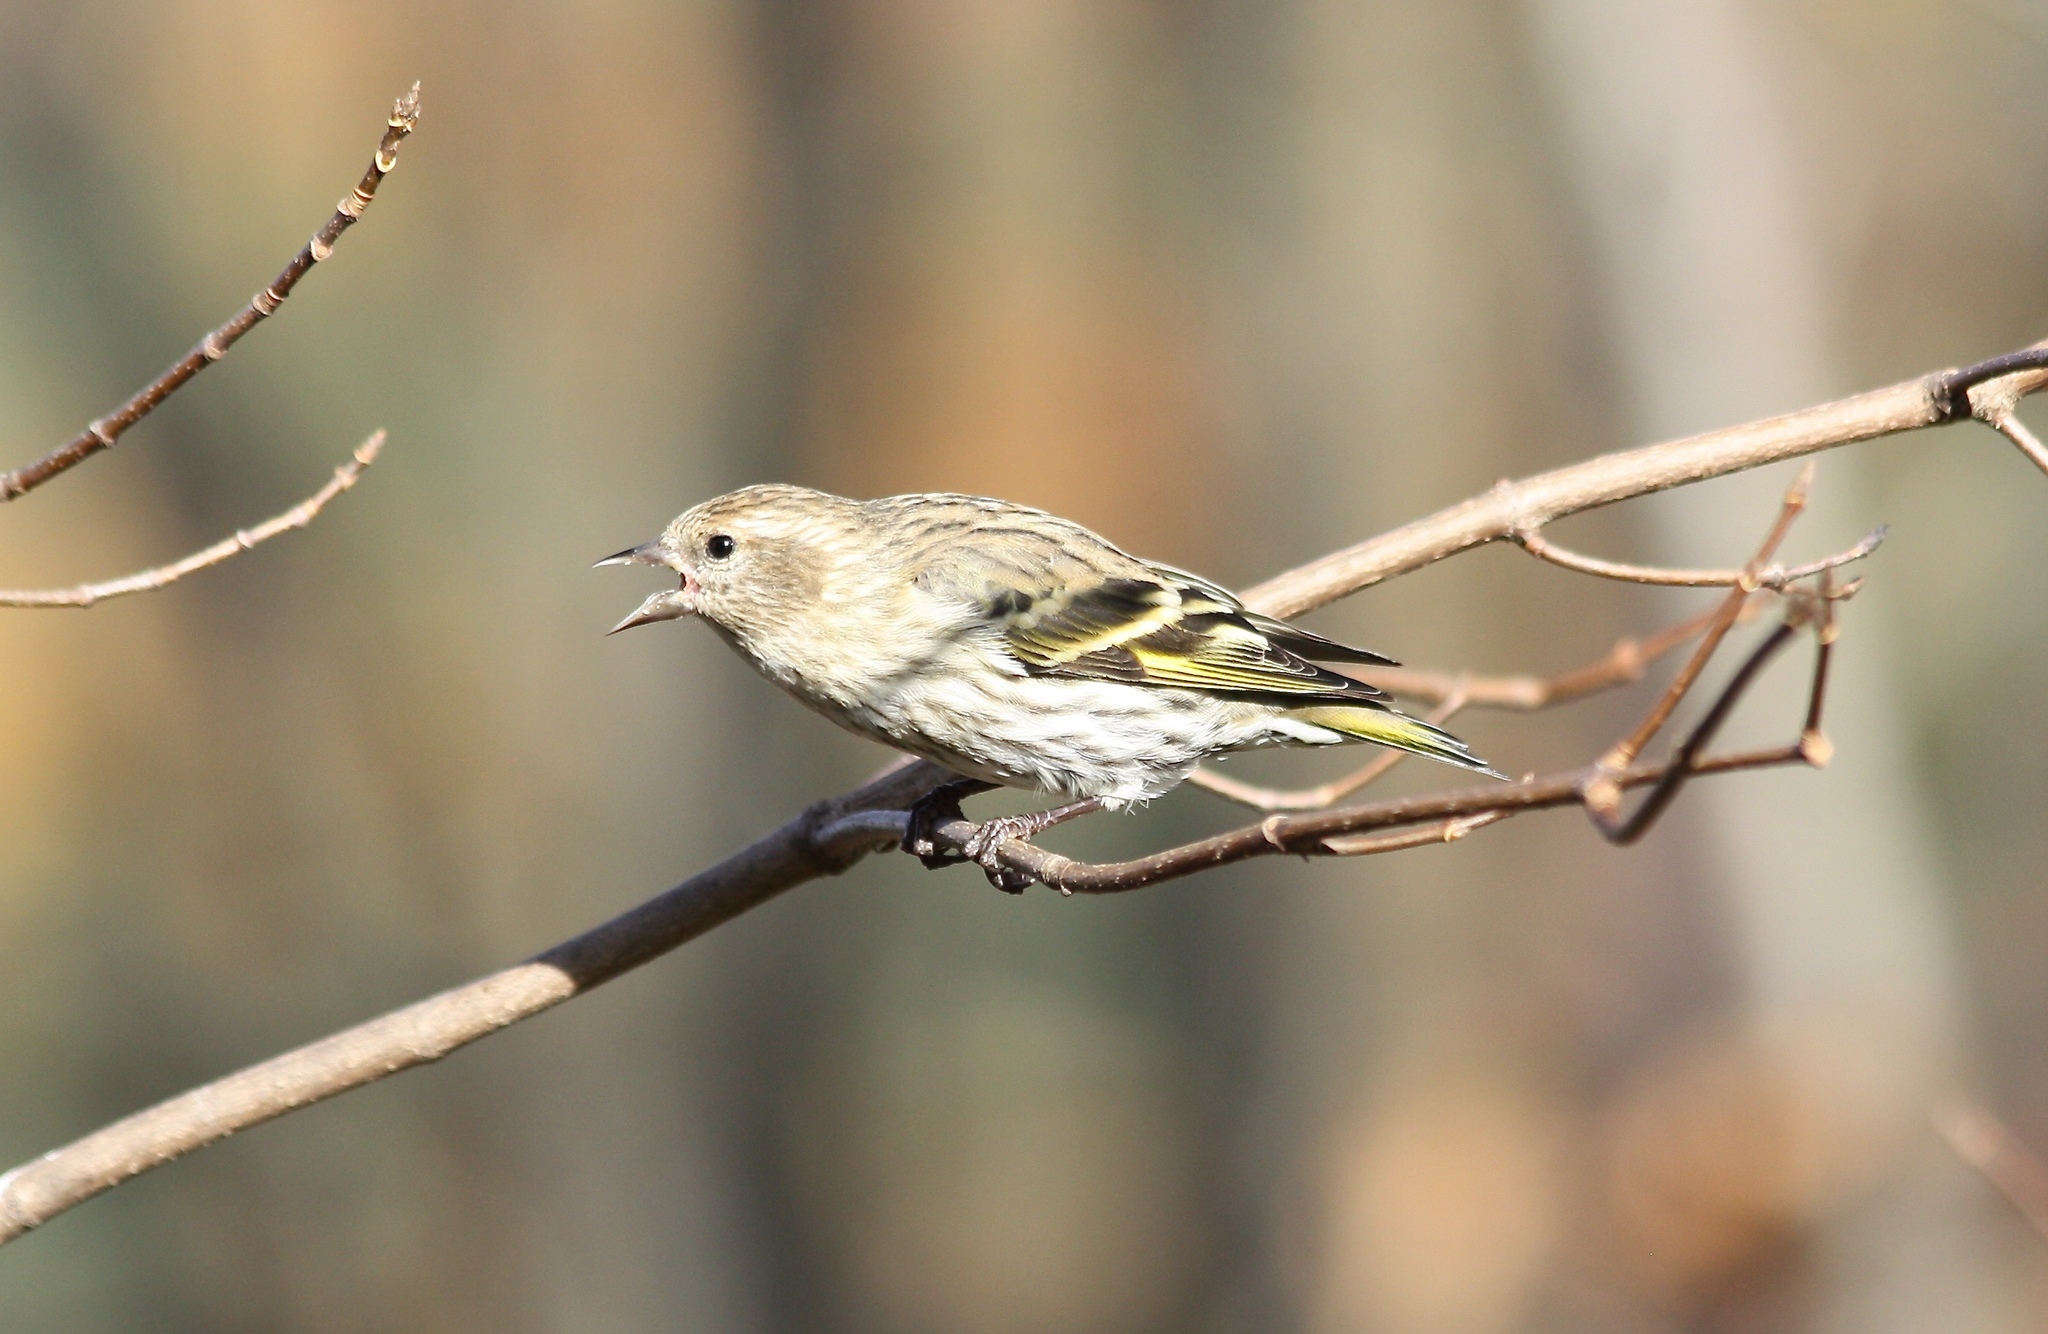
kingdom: Animalia
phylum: Chordata
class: Aves
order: Passeriformes
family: Fringillidae
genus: Spinus
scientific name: Spinus pinus
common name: Pine siskin
